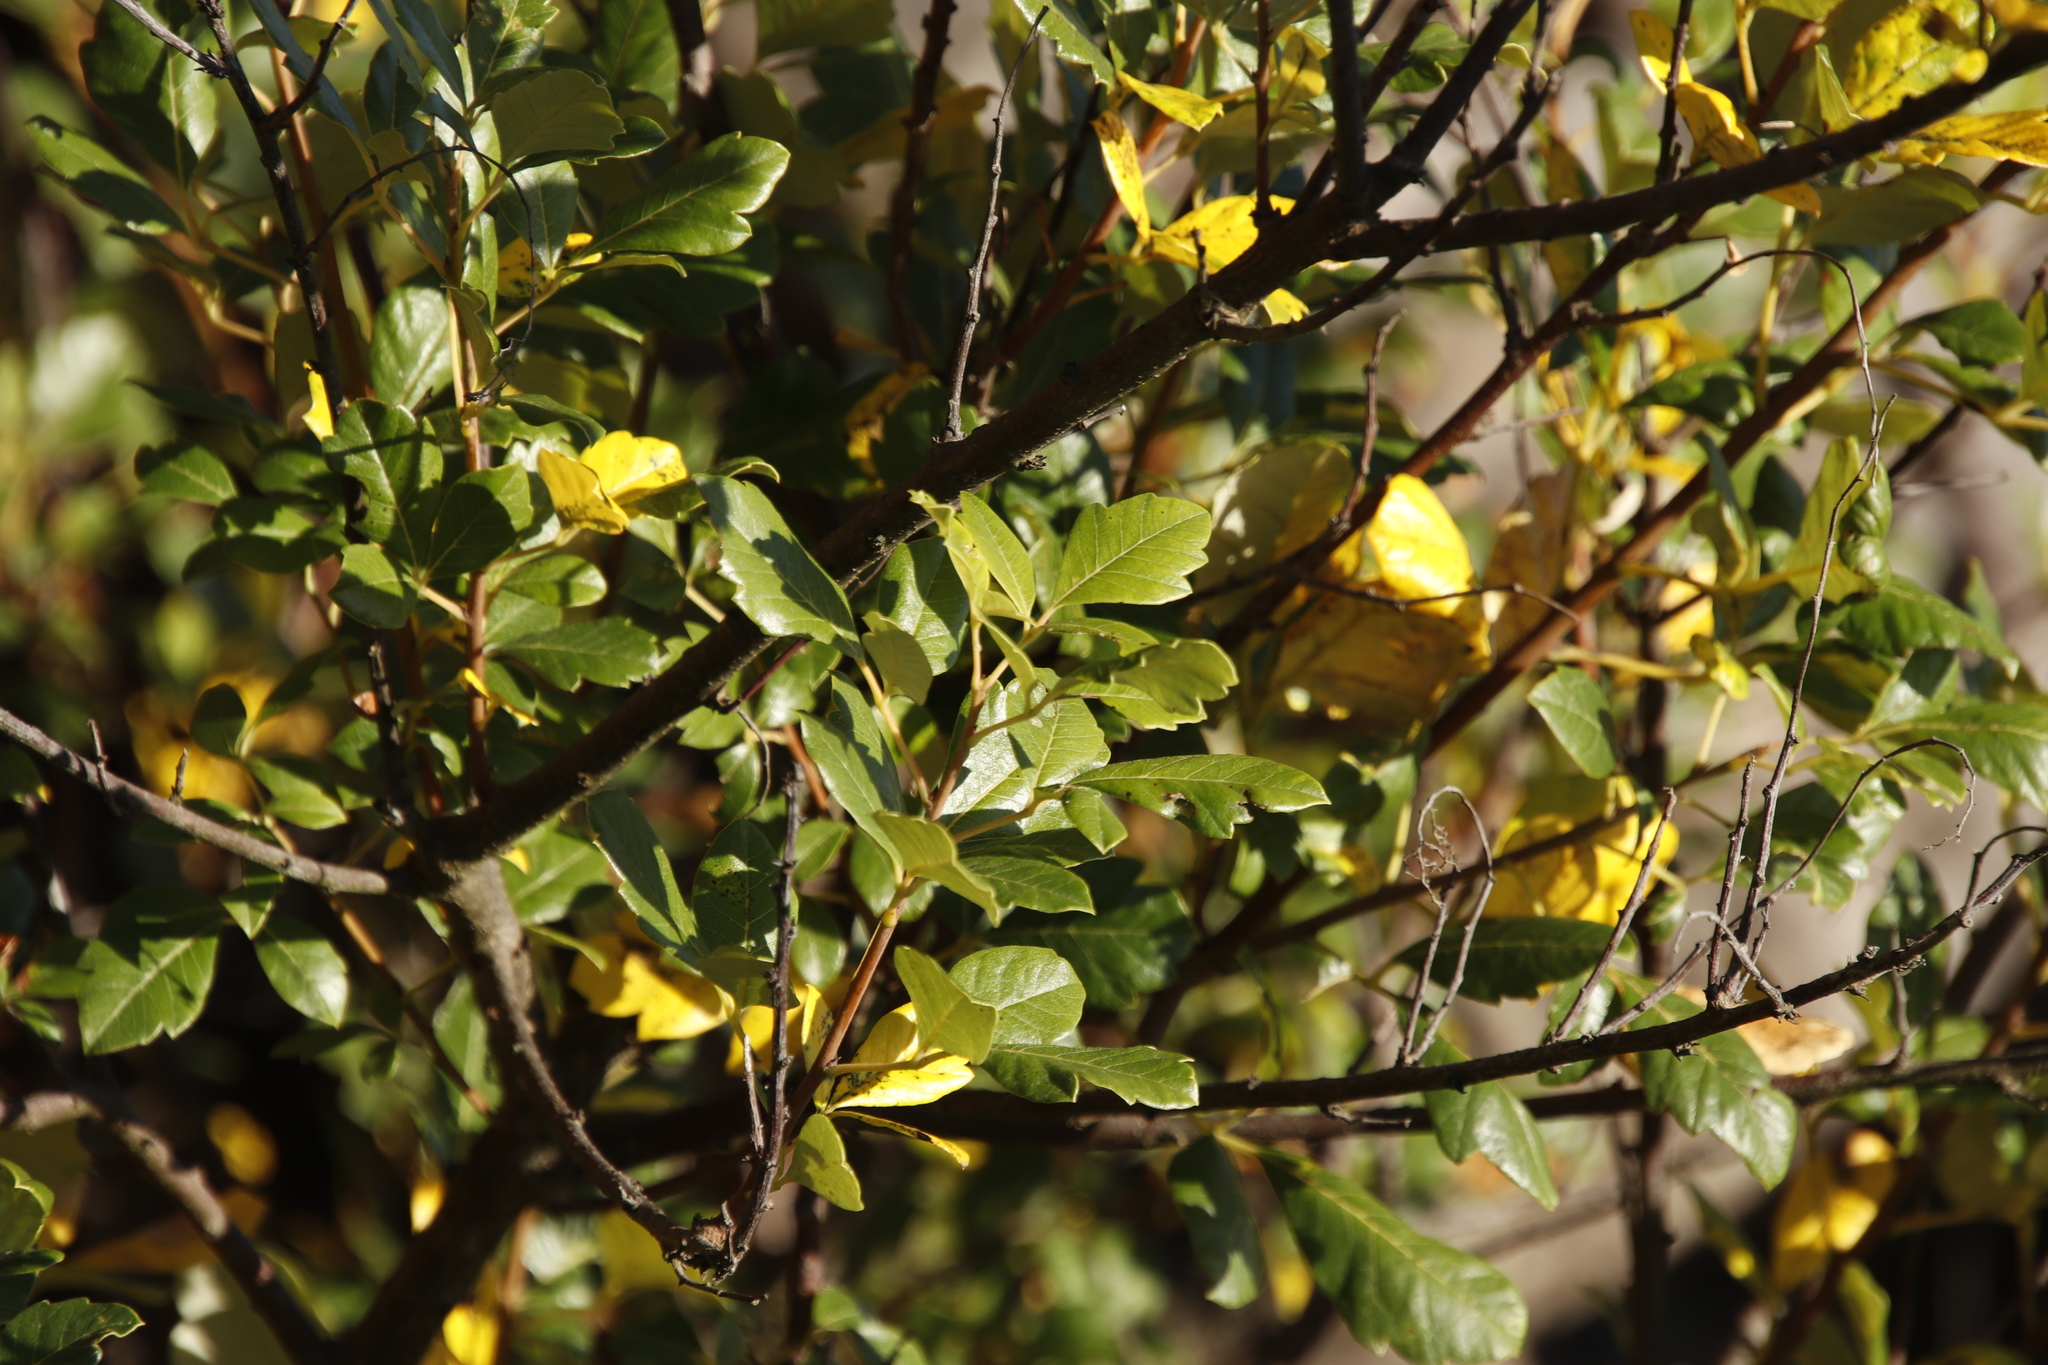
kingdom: Plantae
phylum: Tracheophyta
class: Magnoliopsida
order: Sapindales
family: Anacardiaceae
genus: Searsia
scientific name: Searsia tomentosa
